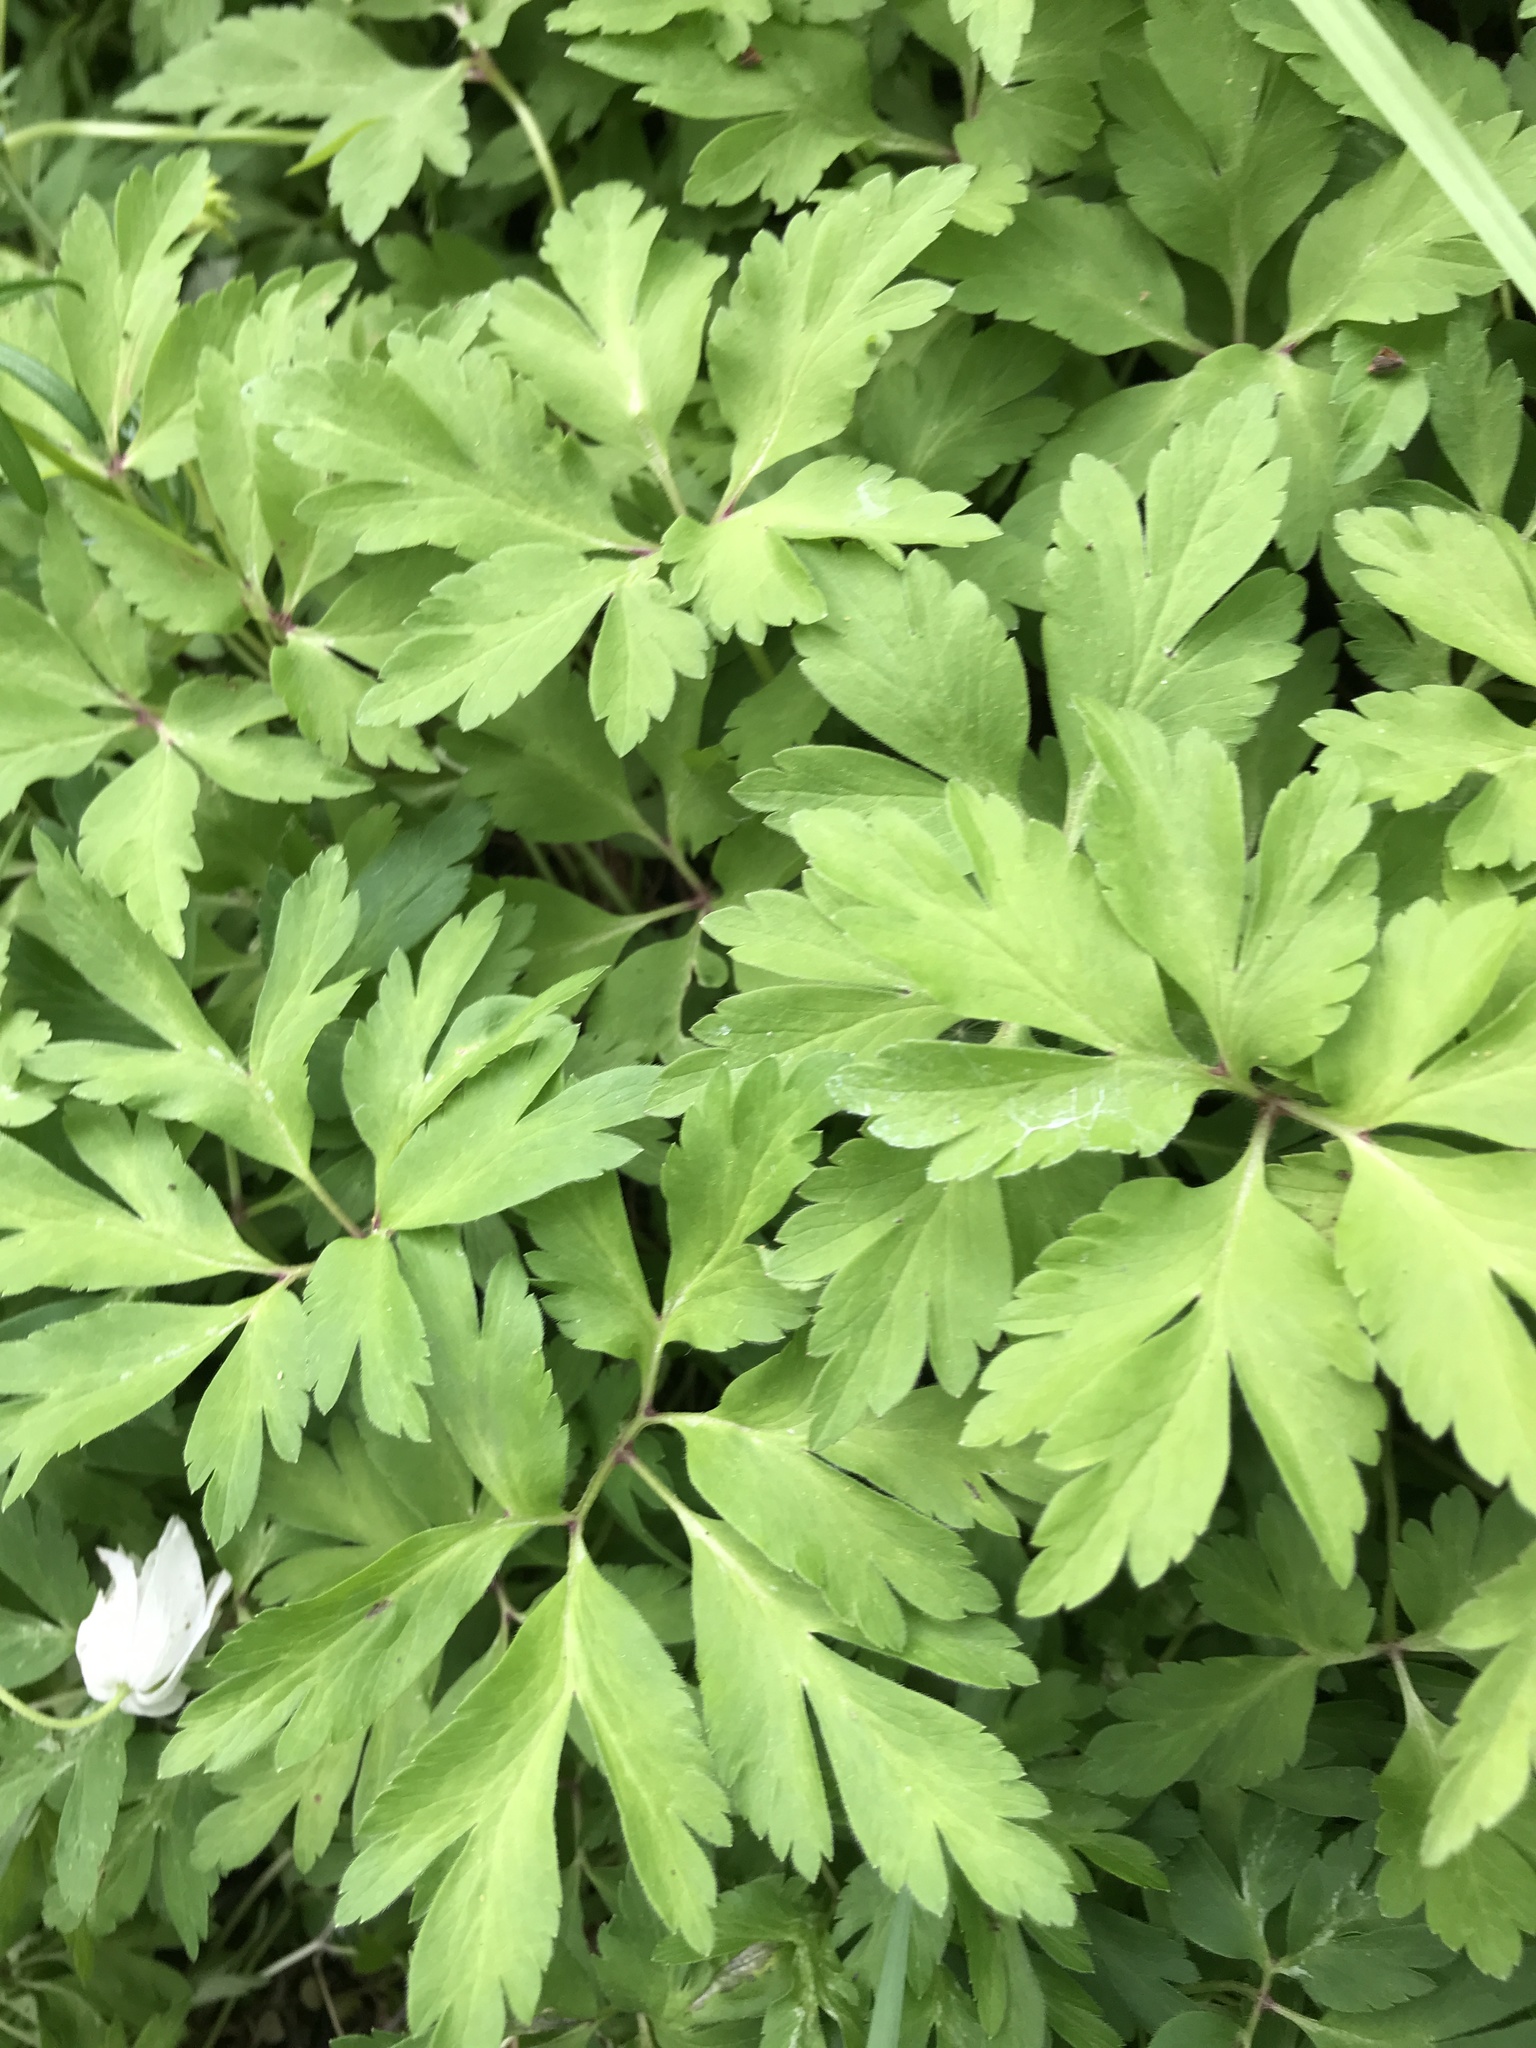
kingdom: Plantae
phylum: Tracheophyta
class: Magnoliopsida
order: Ranunculales
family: Ranunculaceae
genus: Anemone
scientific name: Anemone nemorosa
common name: Wood anemone
